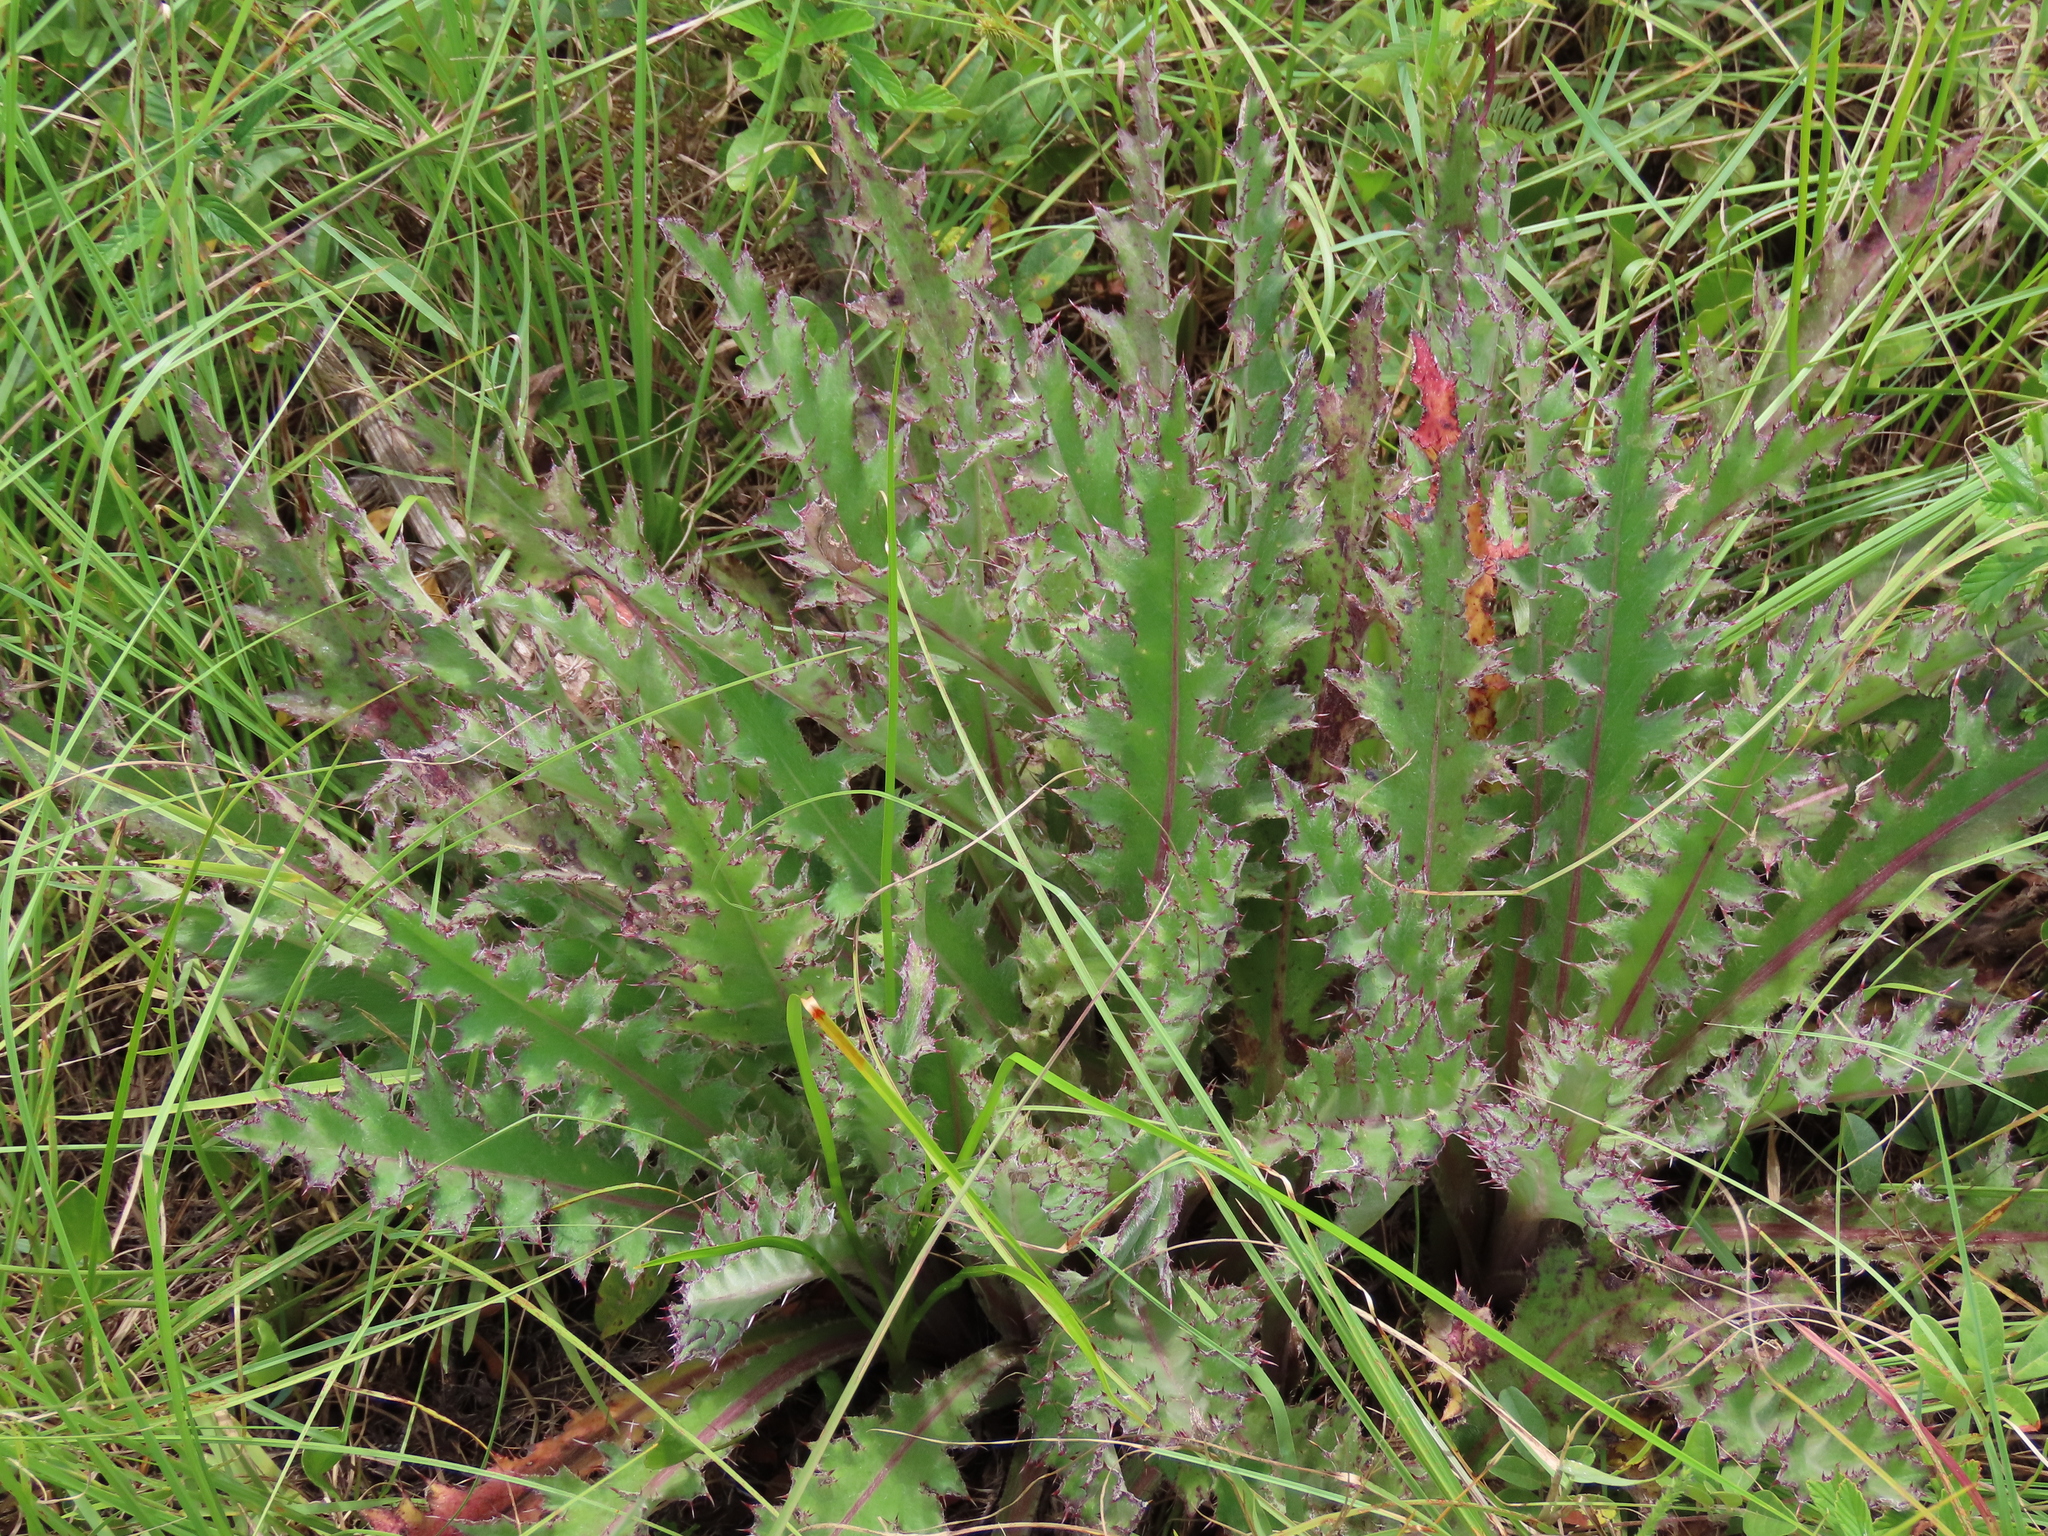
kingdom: Plantae
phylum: Tracheophyta
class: Magnoliopsida
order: Asterales
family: Asteraceae
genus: Cirsium
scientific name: Cirsium horridulum
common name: Bristly thistle
